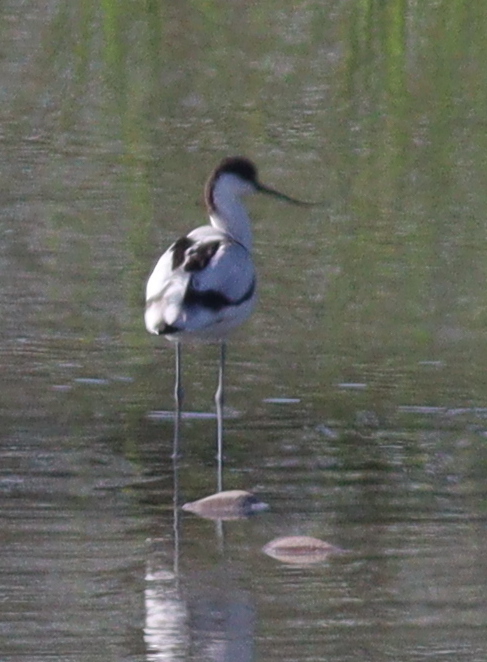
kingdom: Animalia
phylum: Chordata
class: Aves
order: Charadriiformes
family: Recurvirostridae
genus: Recurvirostra
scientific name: Recurvirostra avosetta
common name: Pied avocet
